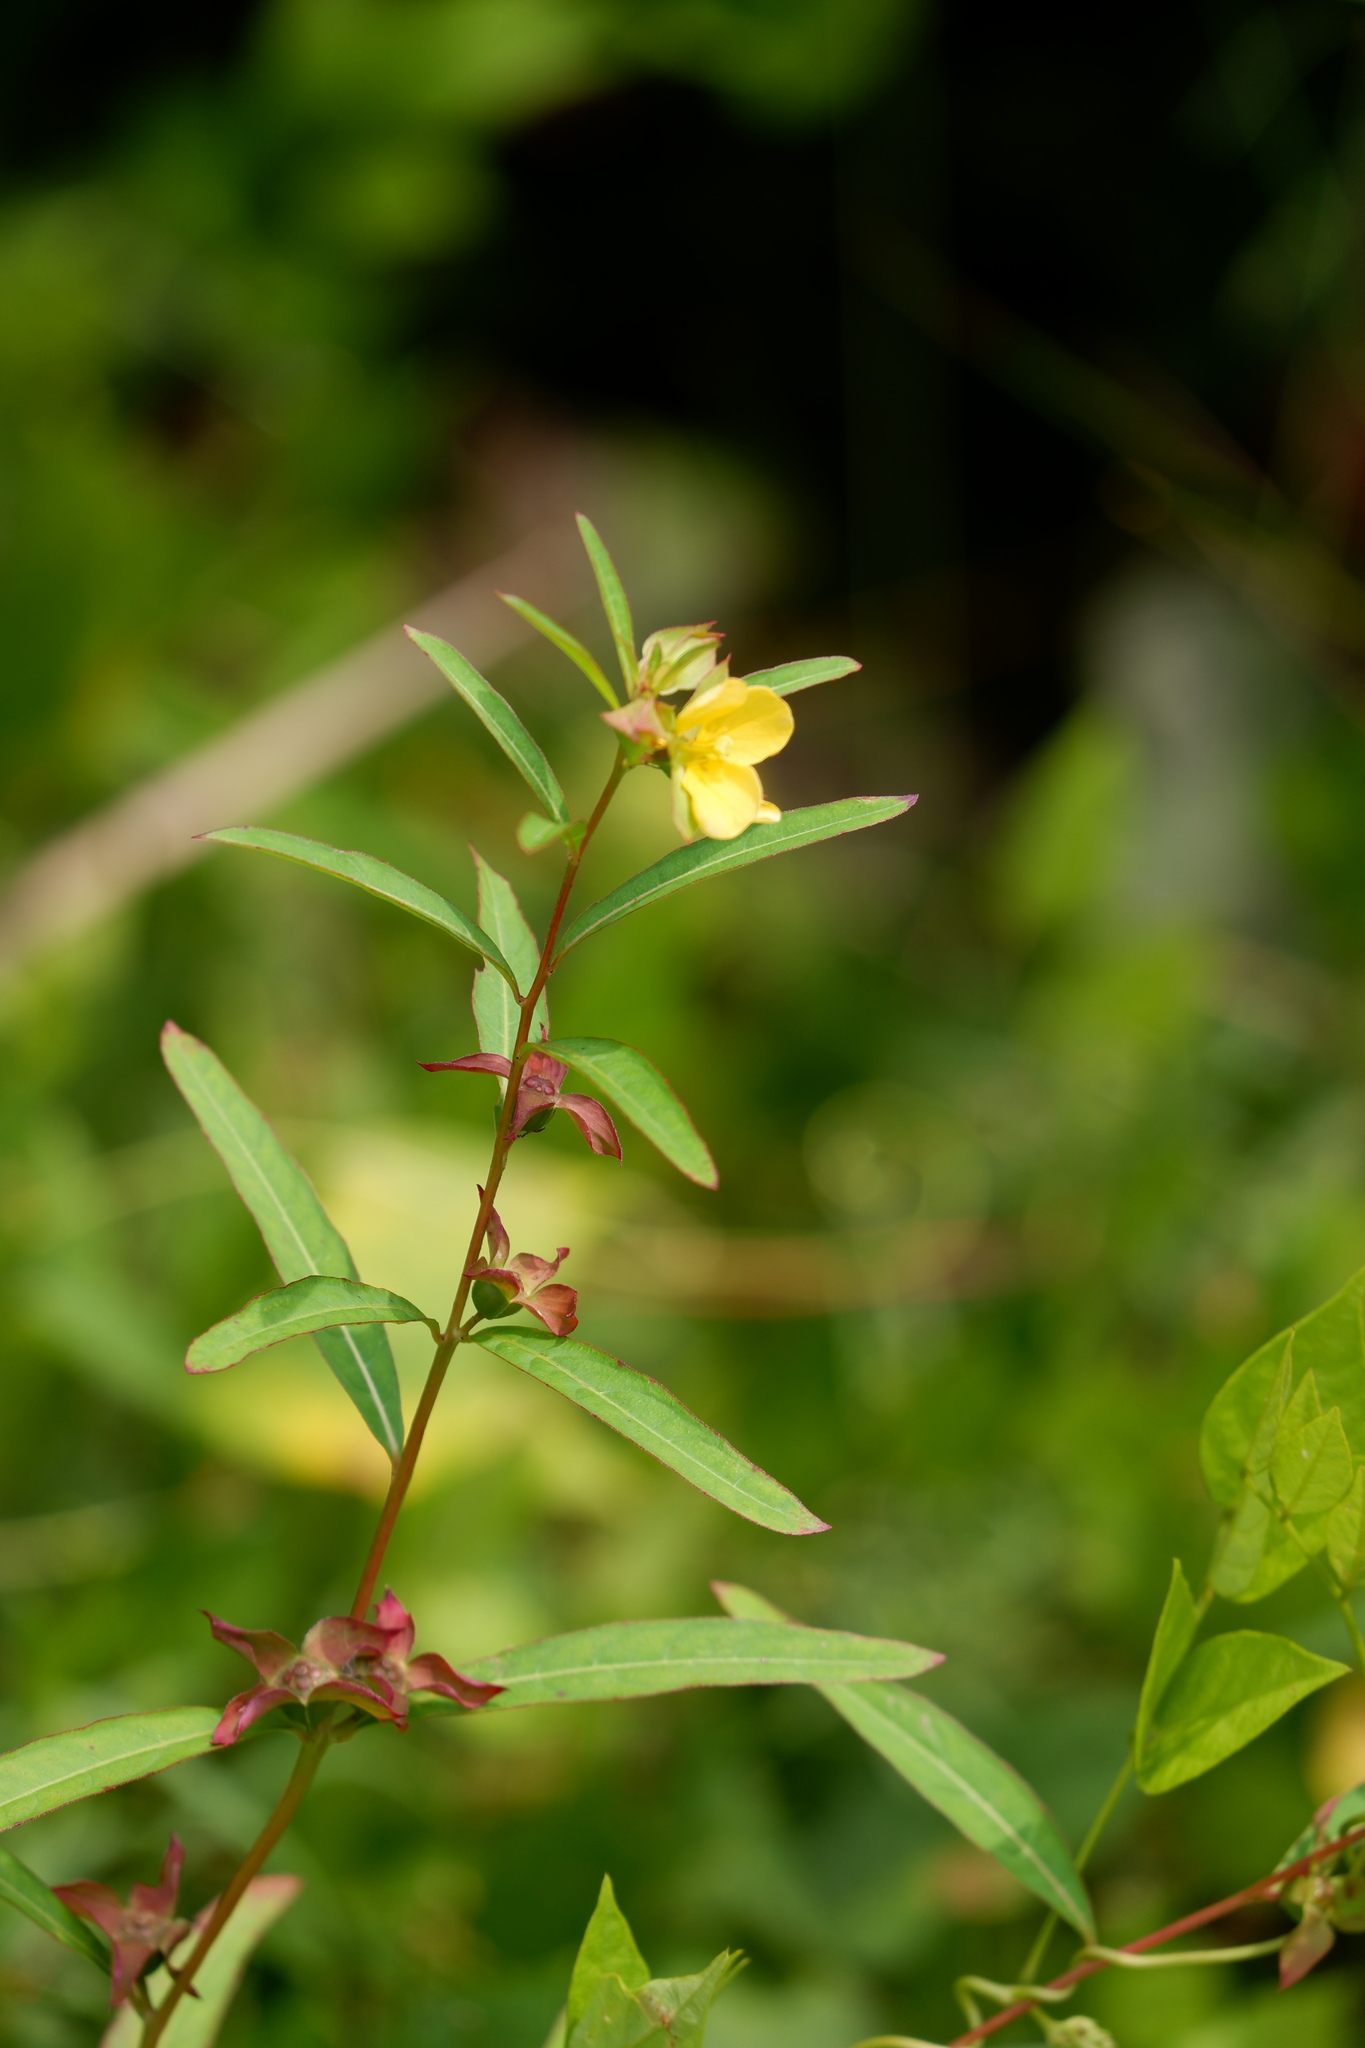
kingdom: Plantae
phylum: Tracheophyta
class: Magnoliopsida
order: Myrtales
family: Onagraceae
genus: Ludwigia
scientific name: Ludwigia alternifolia
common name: Rattlebox
